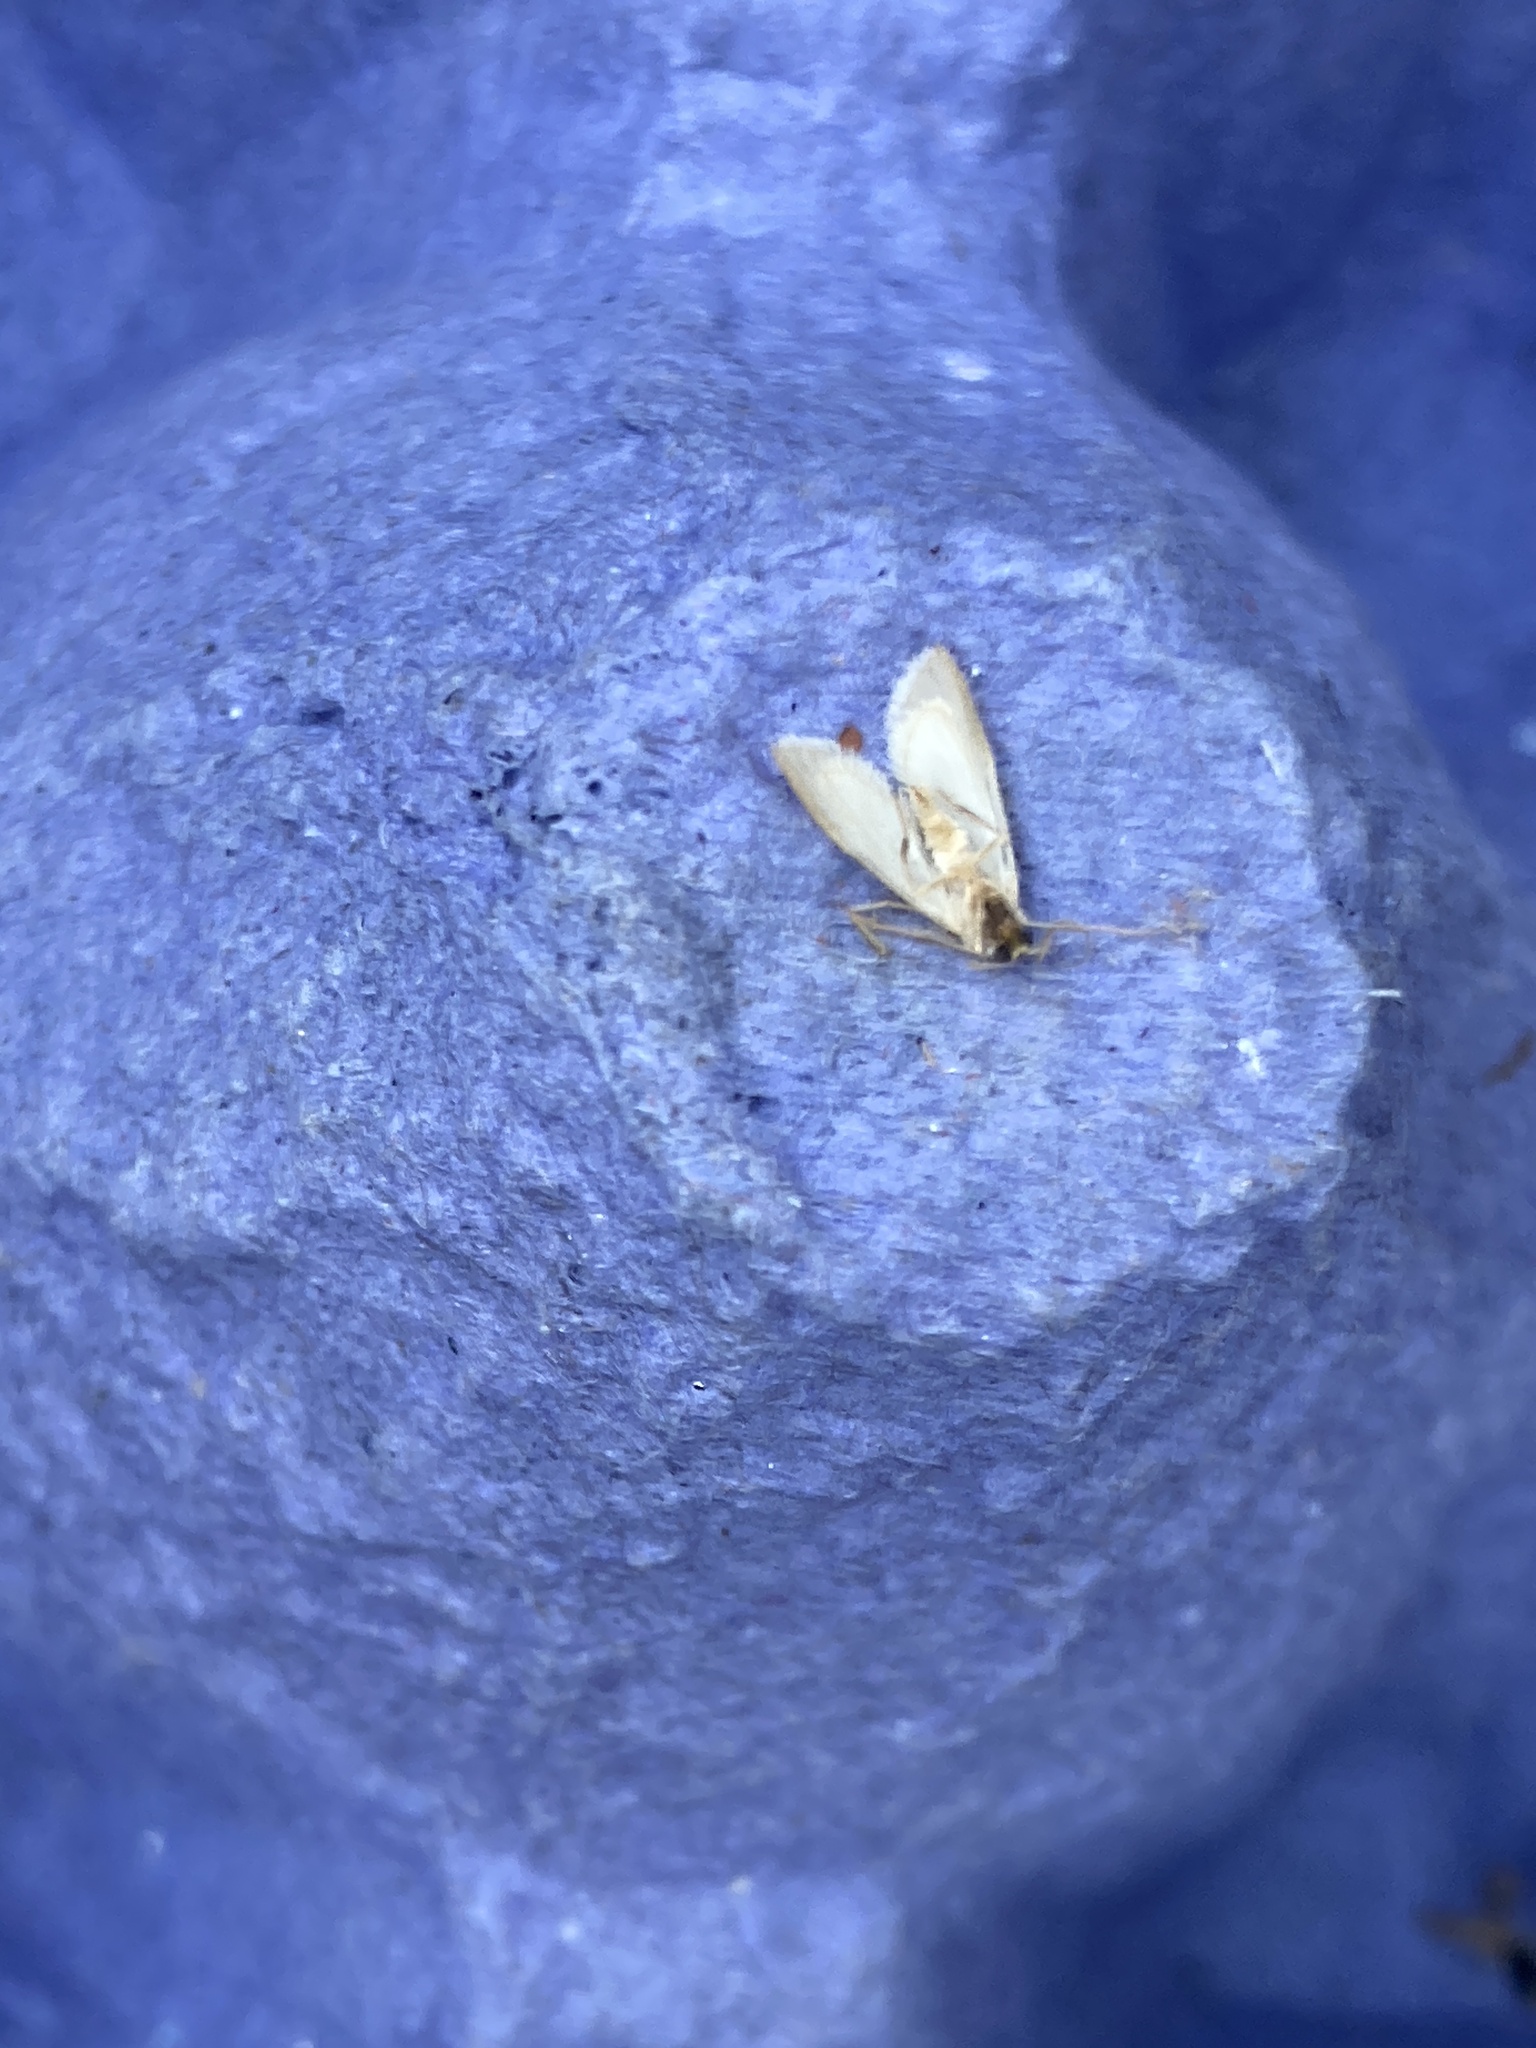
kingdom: Animalia
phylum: Arthropoda
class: Insecta
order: Lepidoptera
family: Crambidae
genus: Acentria
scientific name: Acentria ephemerella
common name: European water moth
